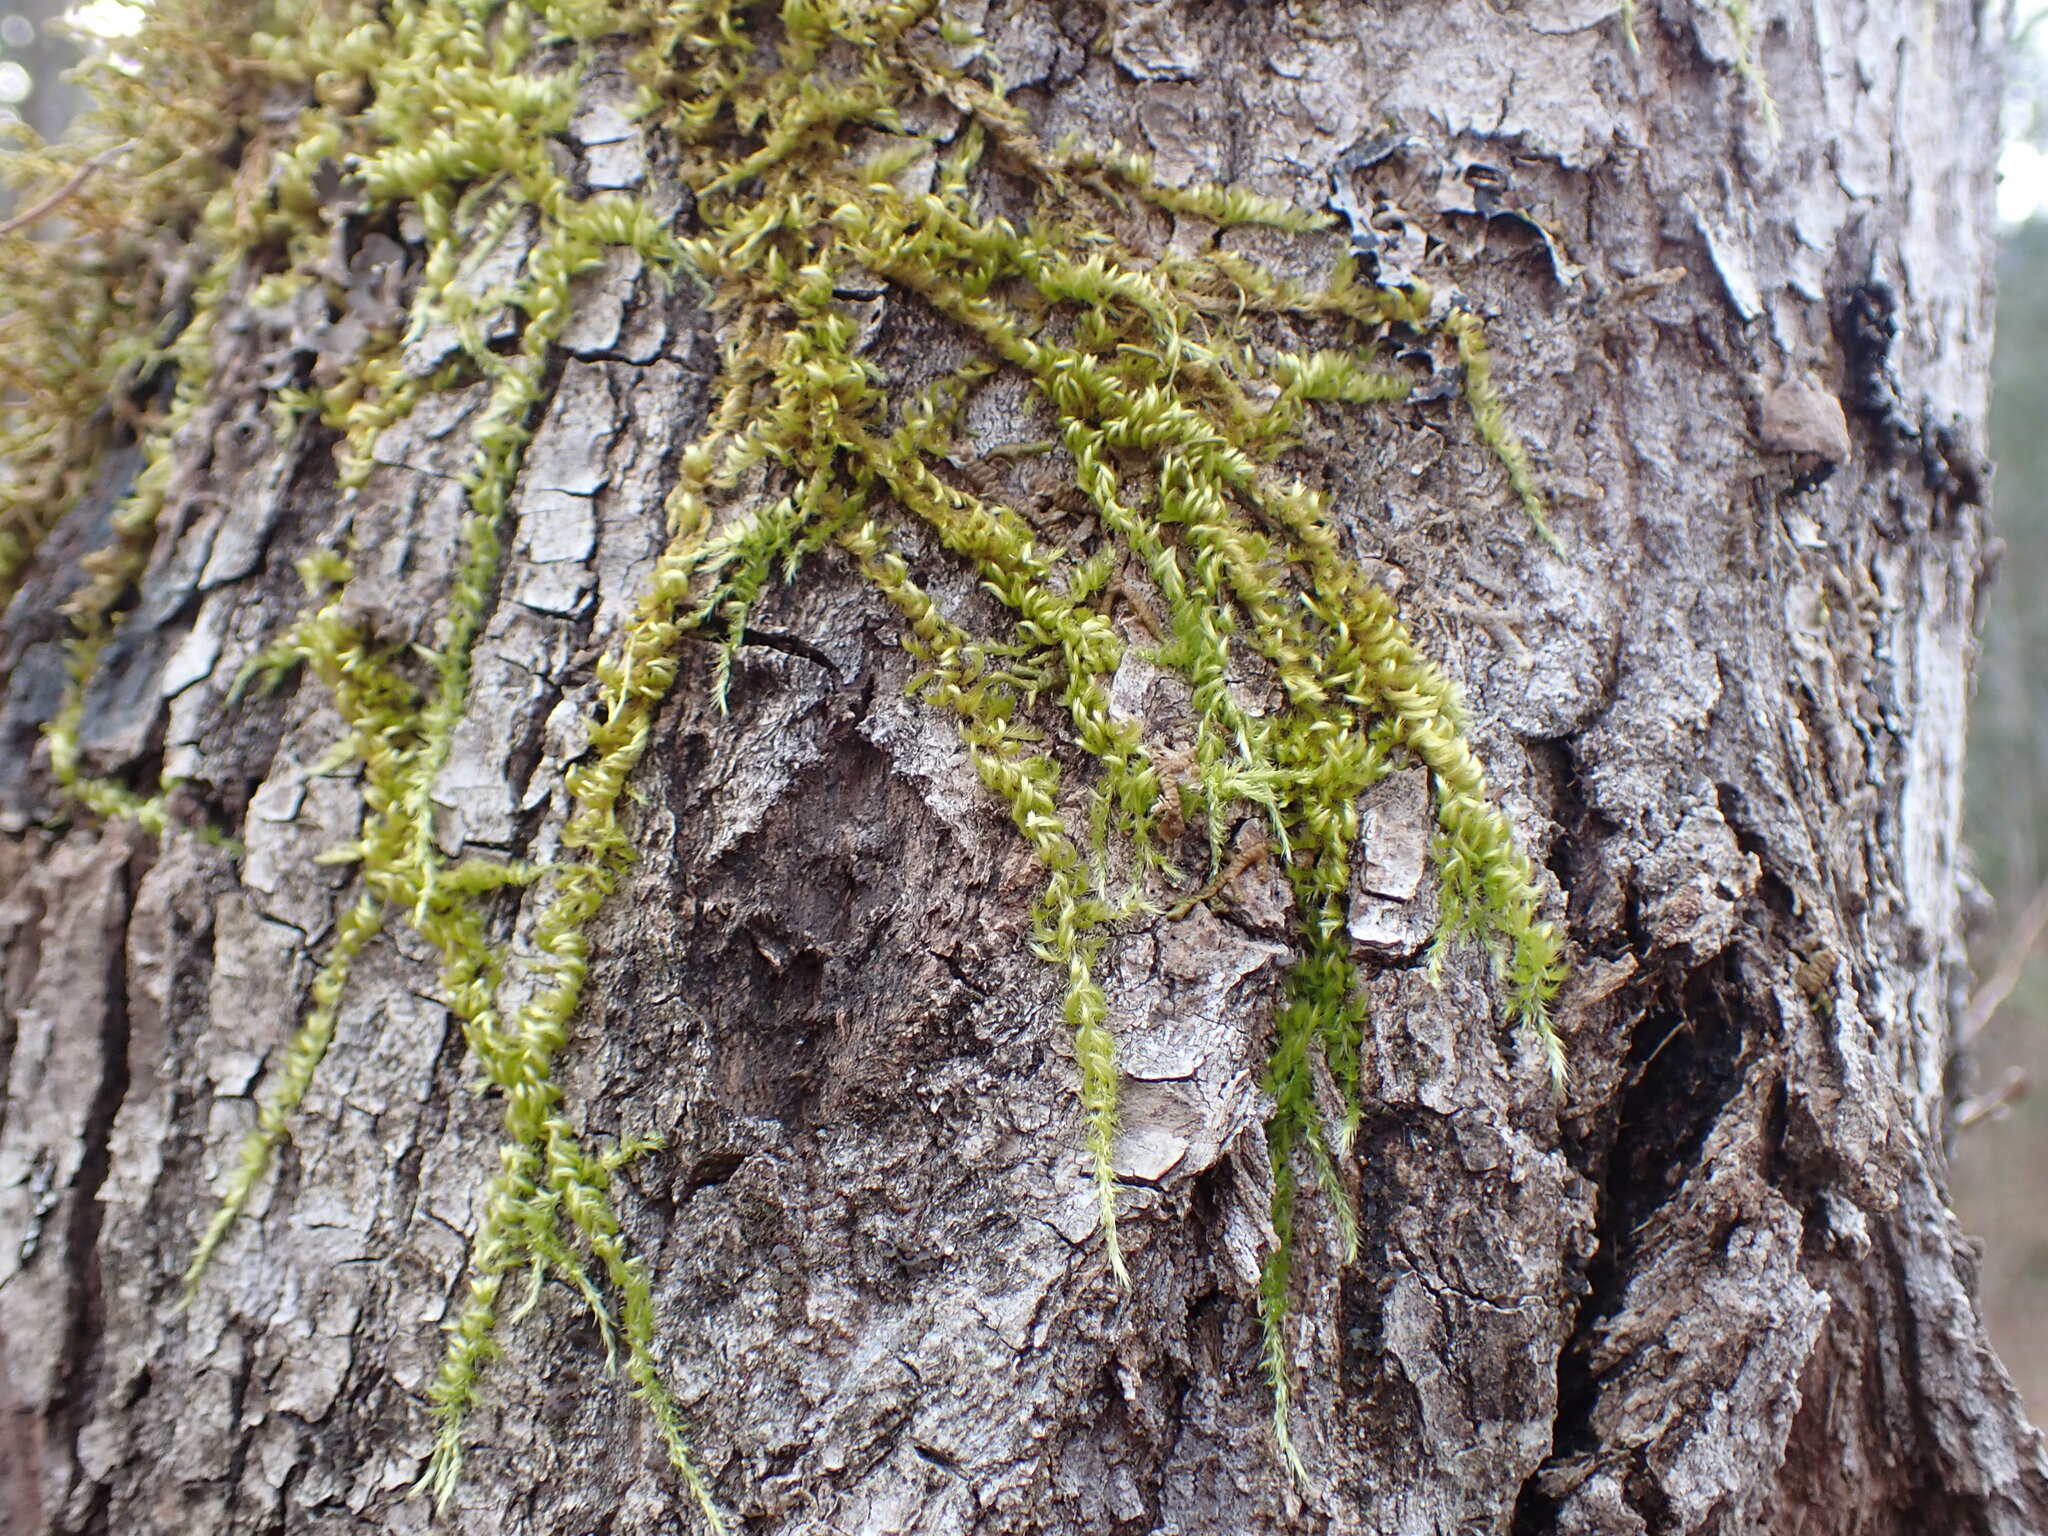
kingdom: Plantae
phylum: Bryophyta
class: Bryopsida
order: Hypnales
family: Brachytheciaceae
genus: Homalothecium
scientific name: Homalothecium nuttallii
